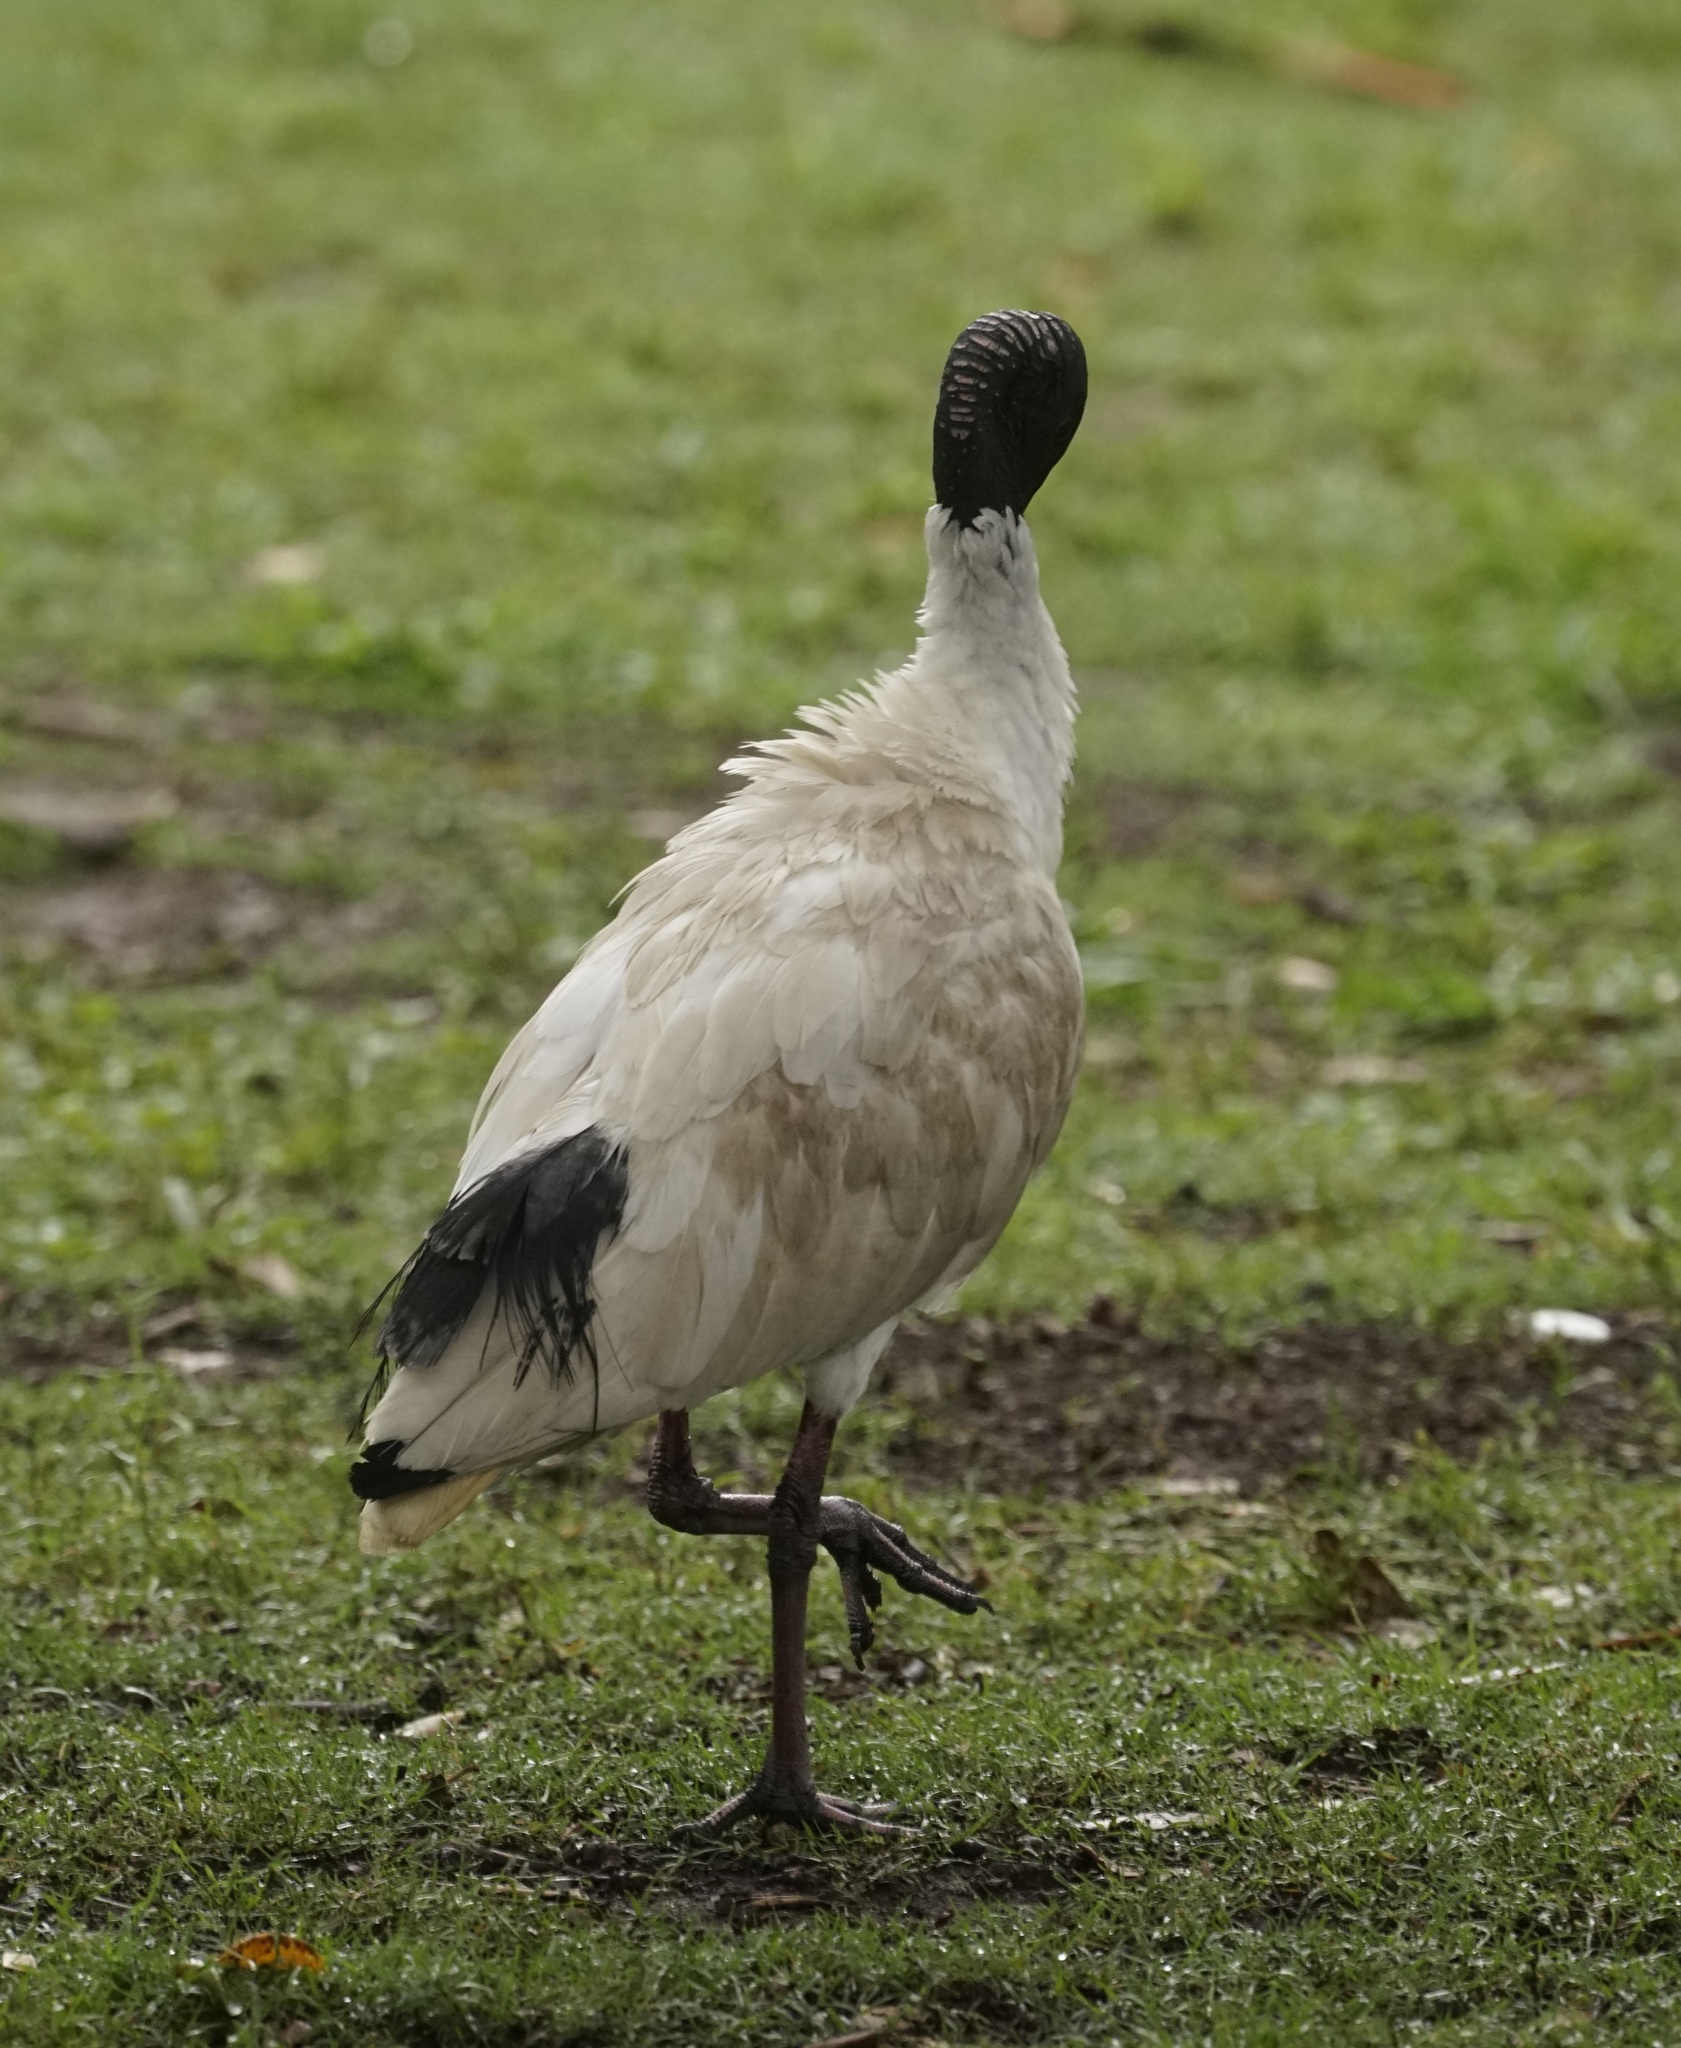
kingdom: Animalia
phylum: Chordata
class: Aves
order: Pelecaniformes
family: Threskiornithidae
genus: Threskiornis
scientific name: Threskiornis molucca
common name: Australian white ibis
